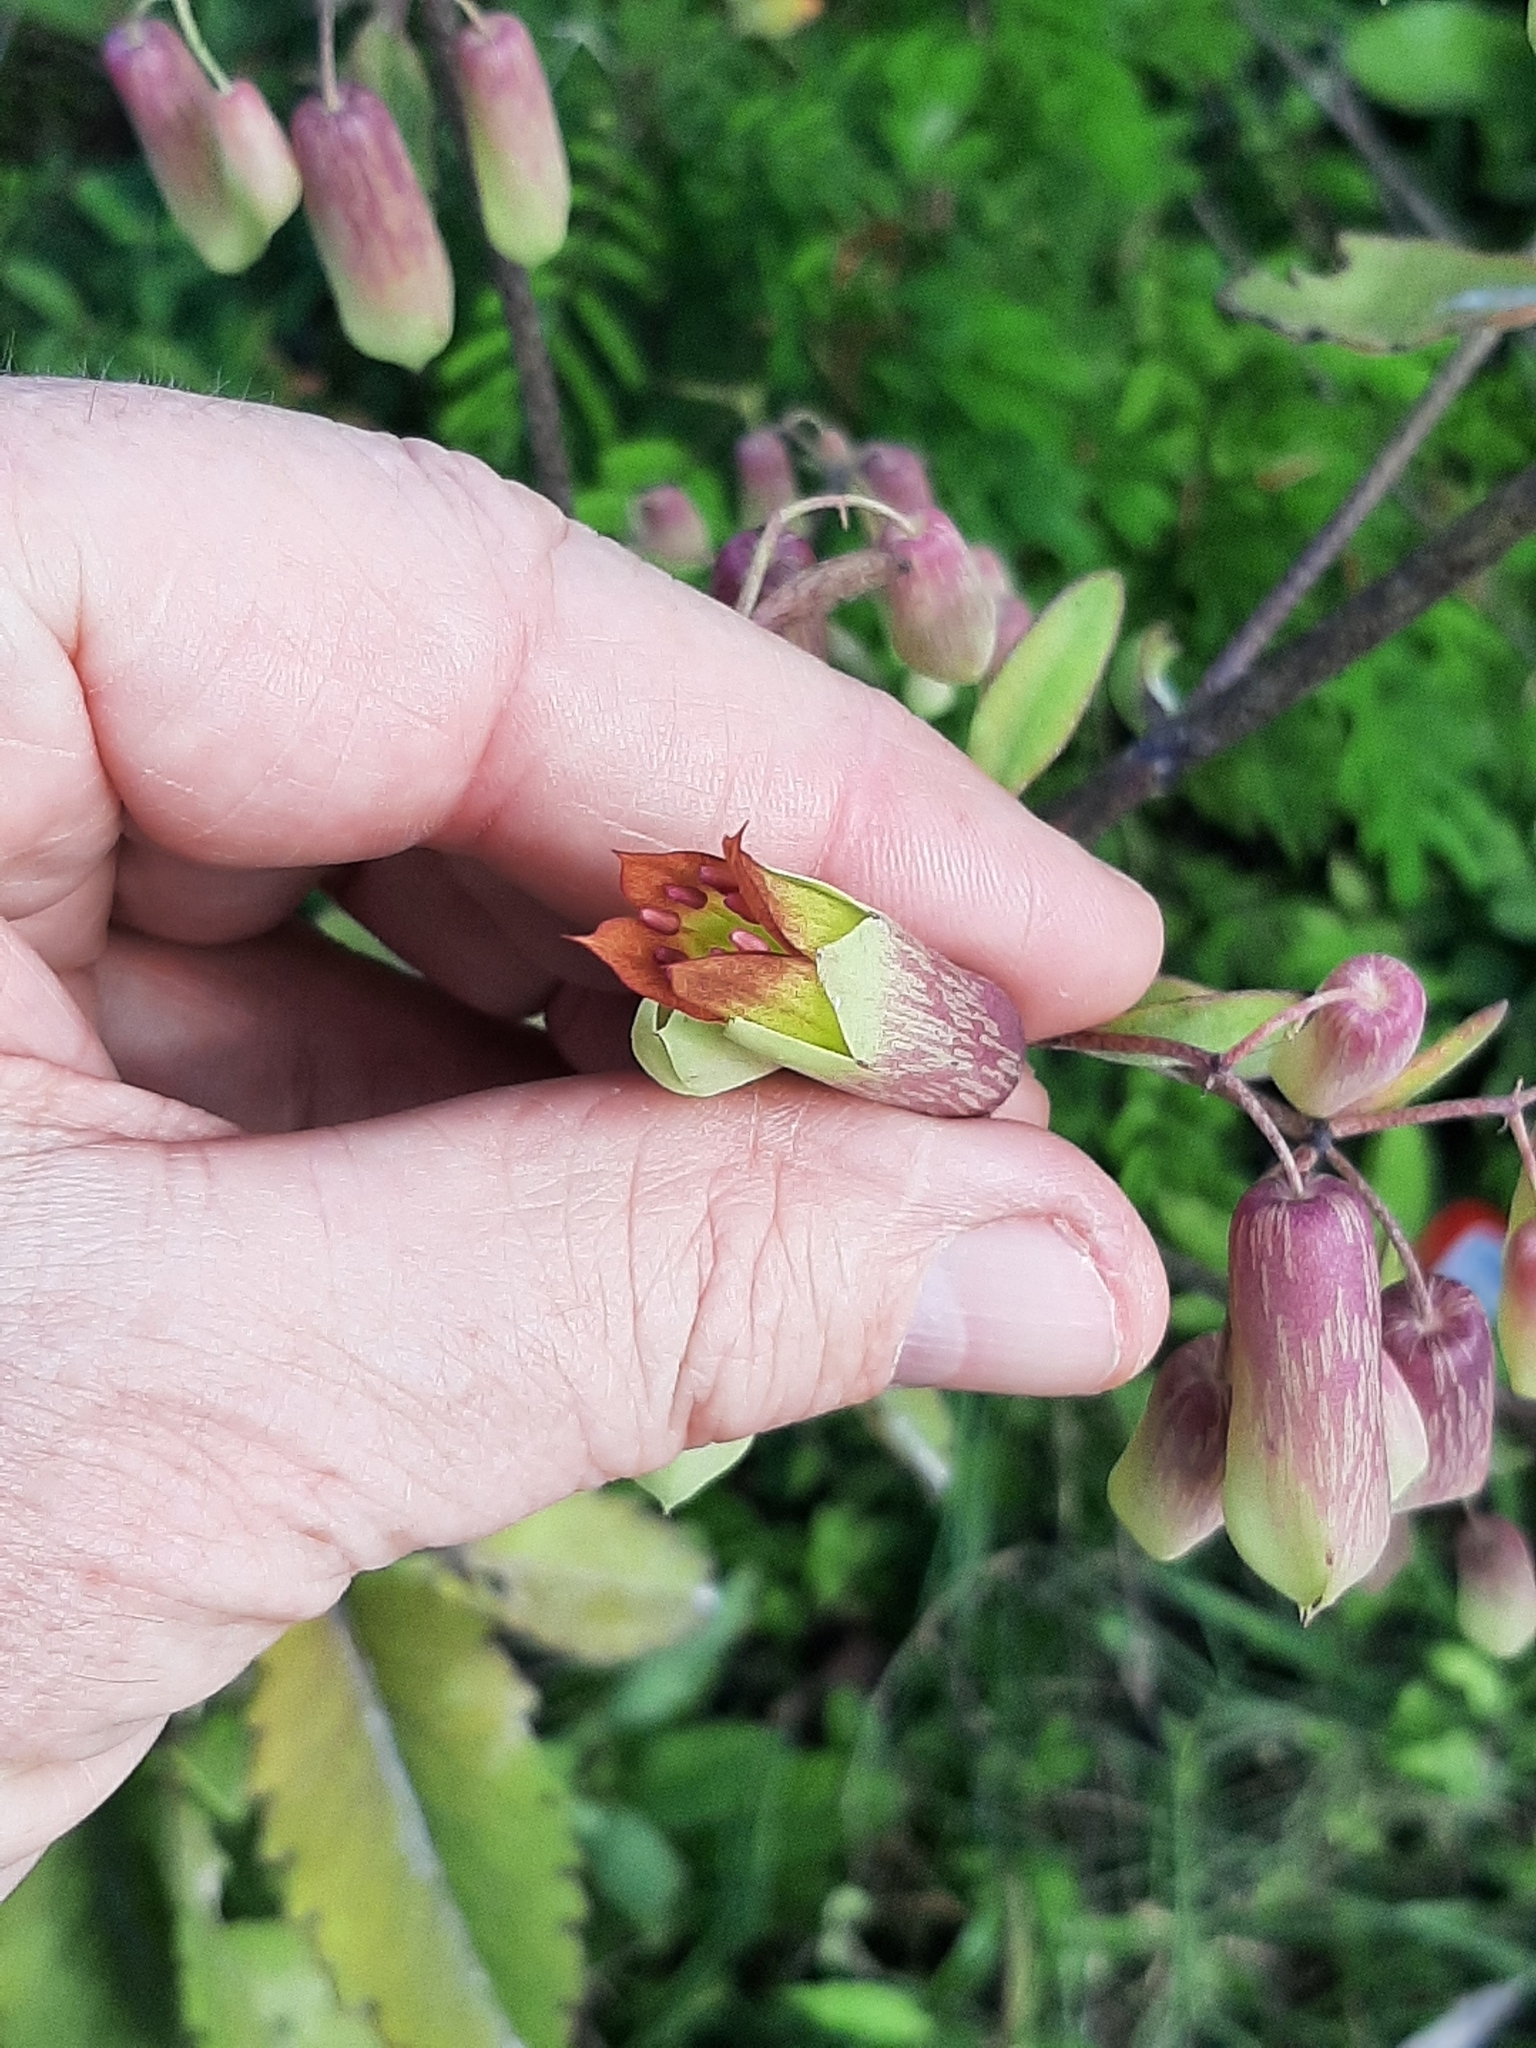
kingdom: Plantae
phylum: Tracheophyta
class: Magnoliopsida
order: Saxifragales
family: Crassulaceae
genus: Kalanchoe
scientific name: Kalanchoe pinnata
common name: Cathedral bells
